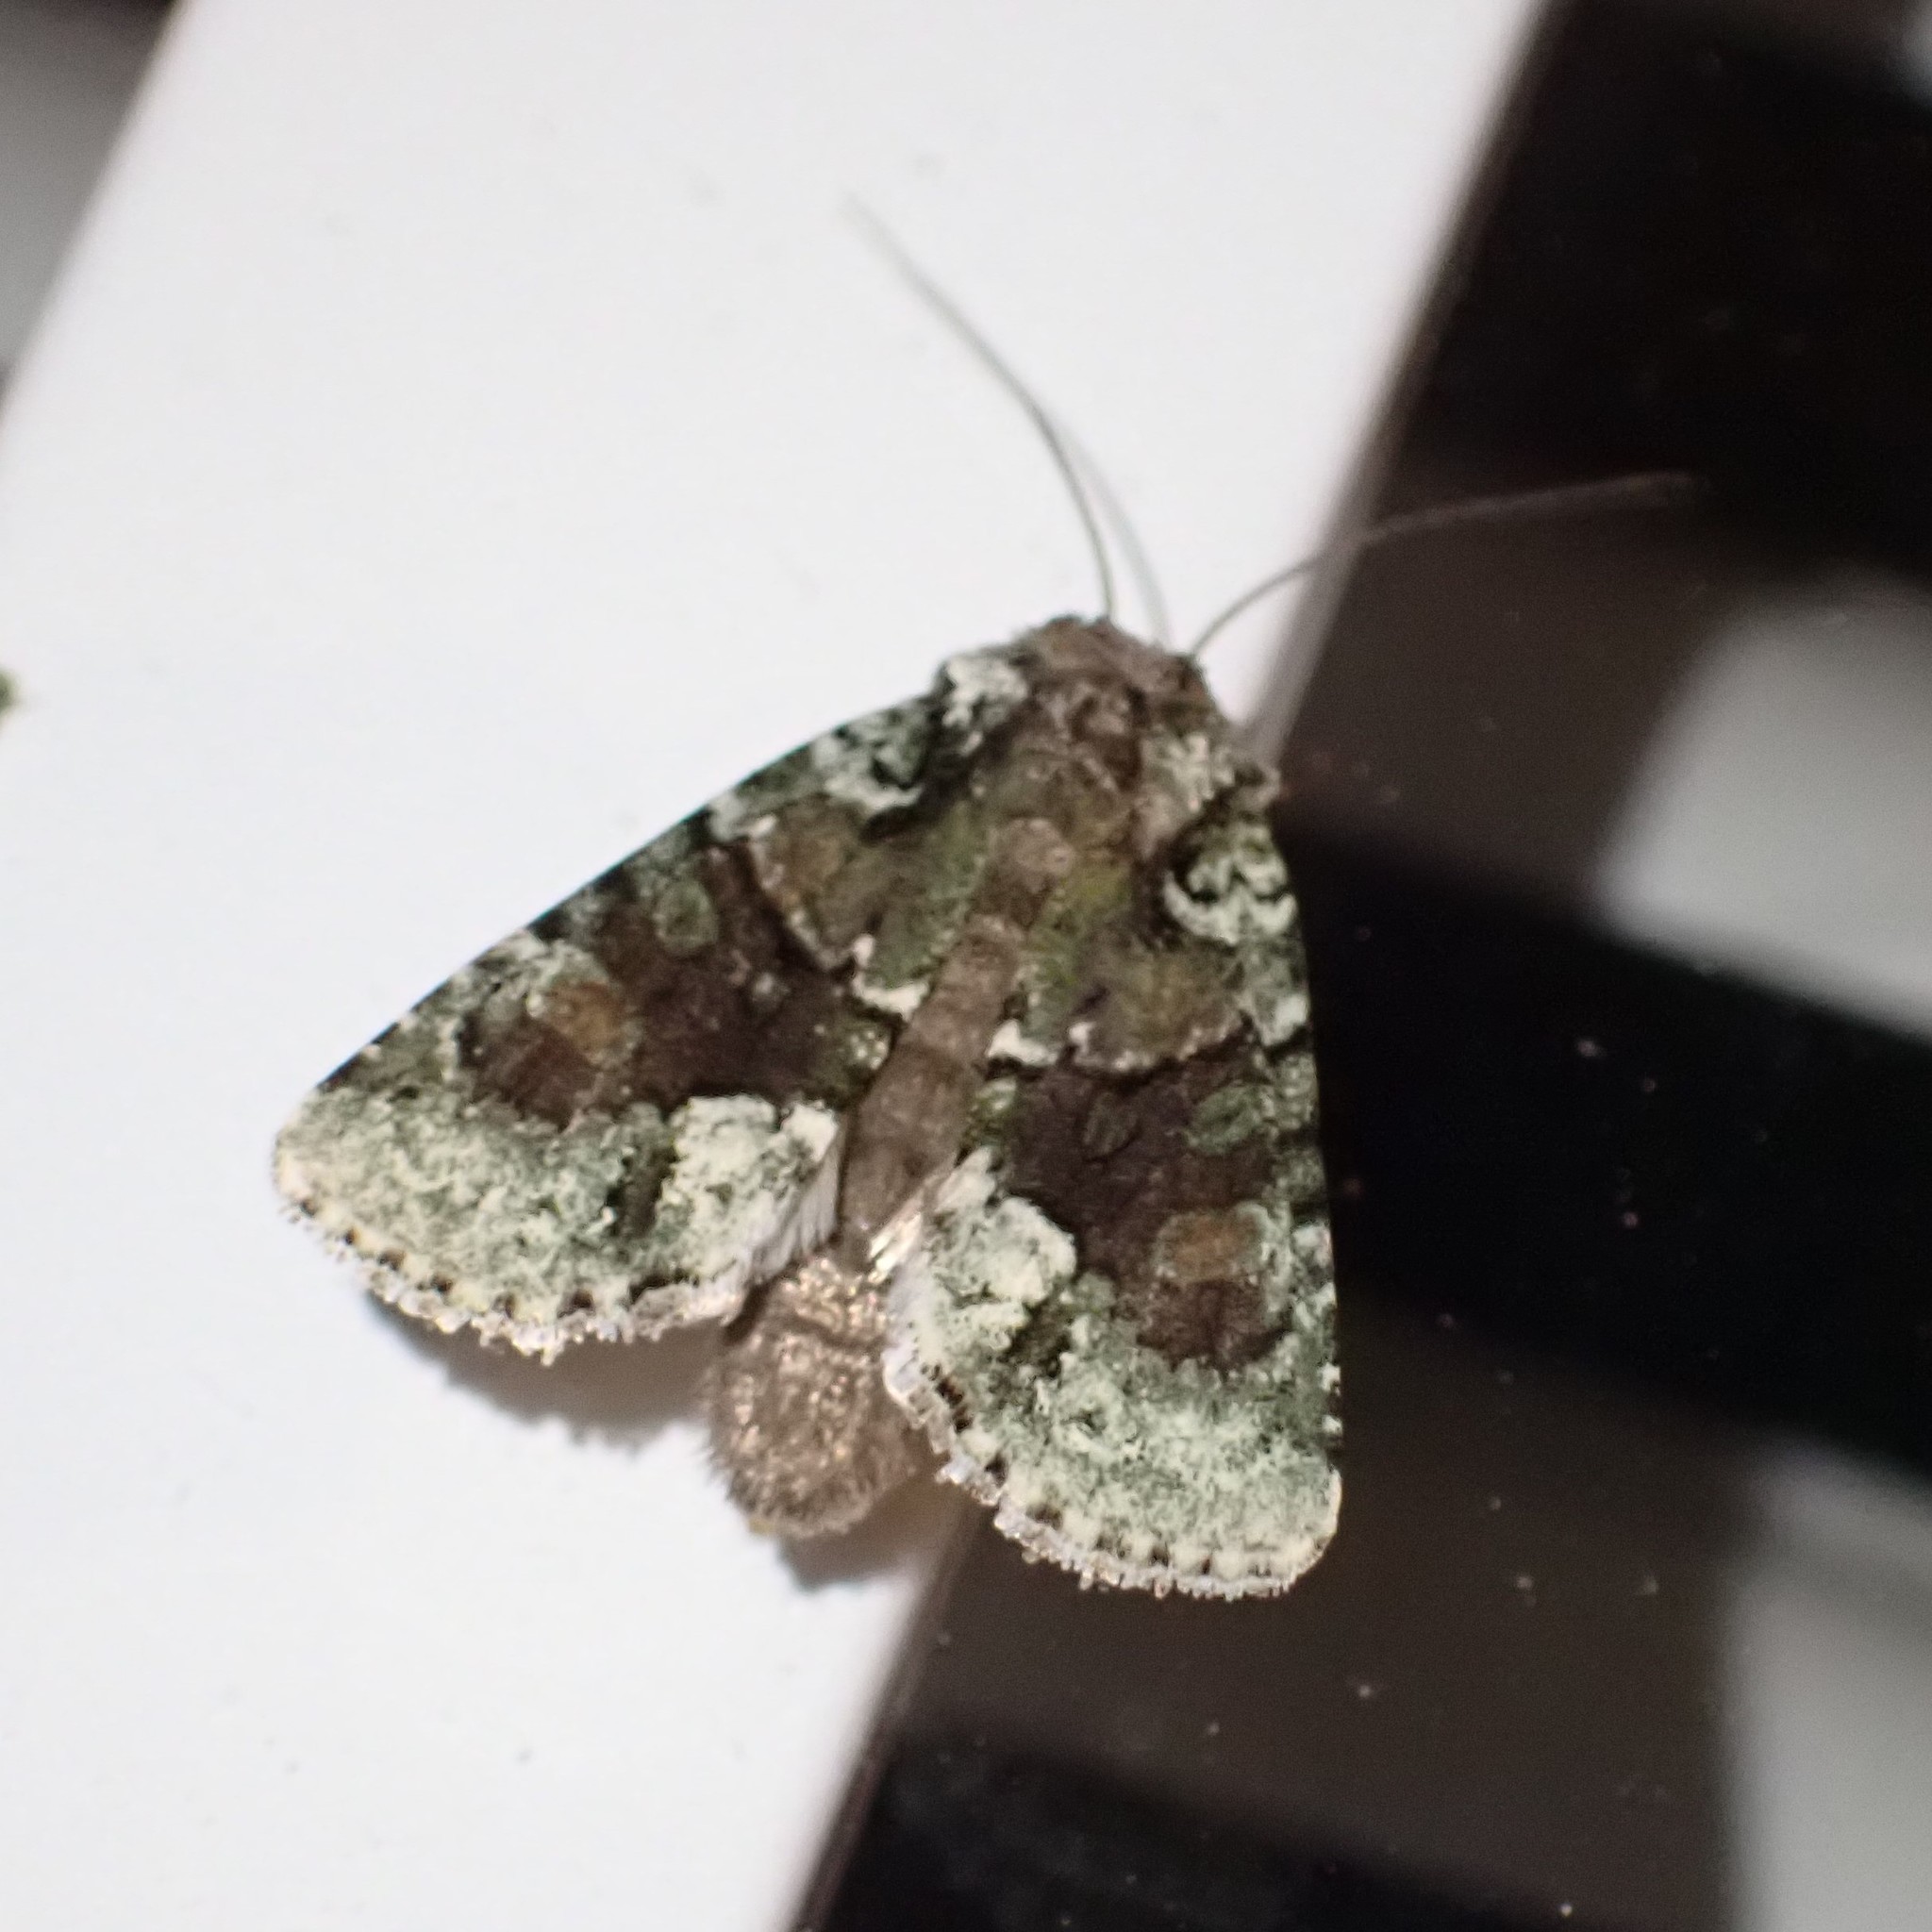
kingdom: Animalia
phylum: Arthropoda
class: Insecta
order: Lepidoptera
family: Noctuidae
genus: Lacinipolia
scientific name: Lacinipolia explicata
